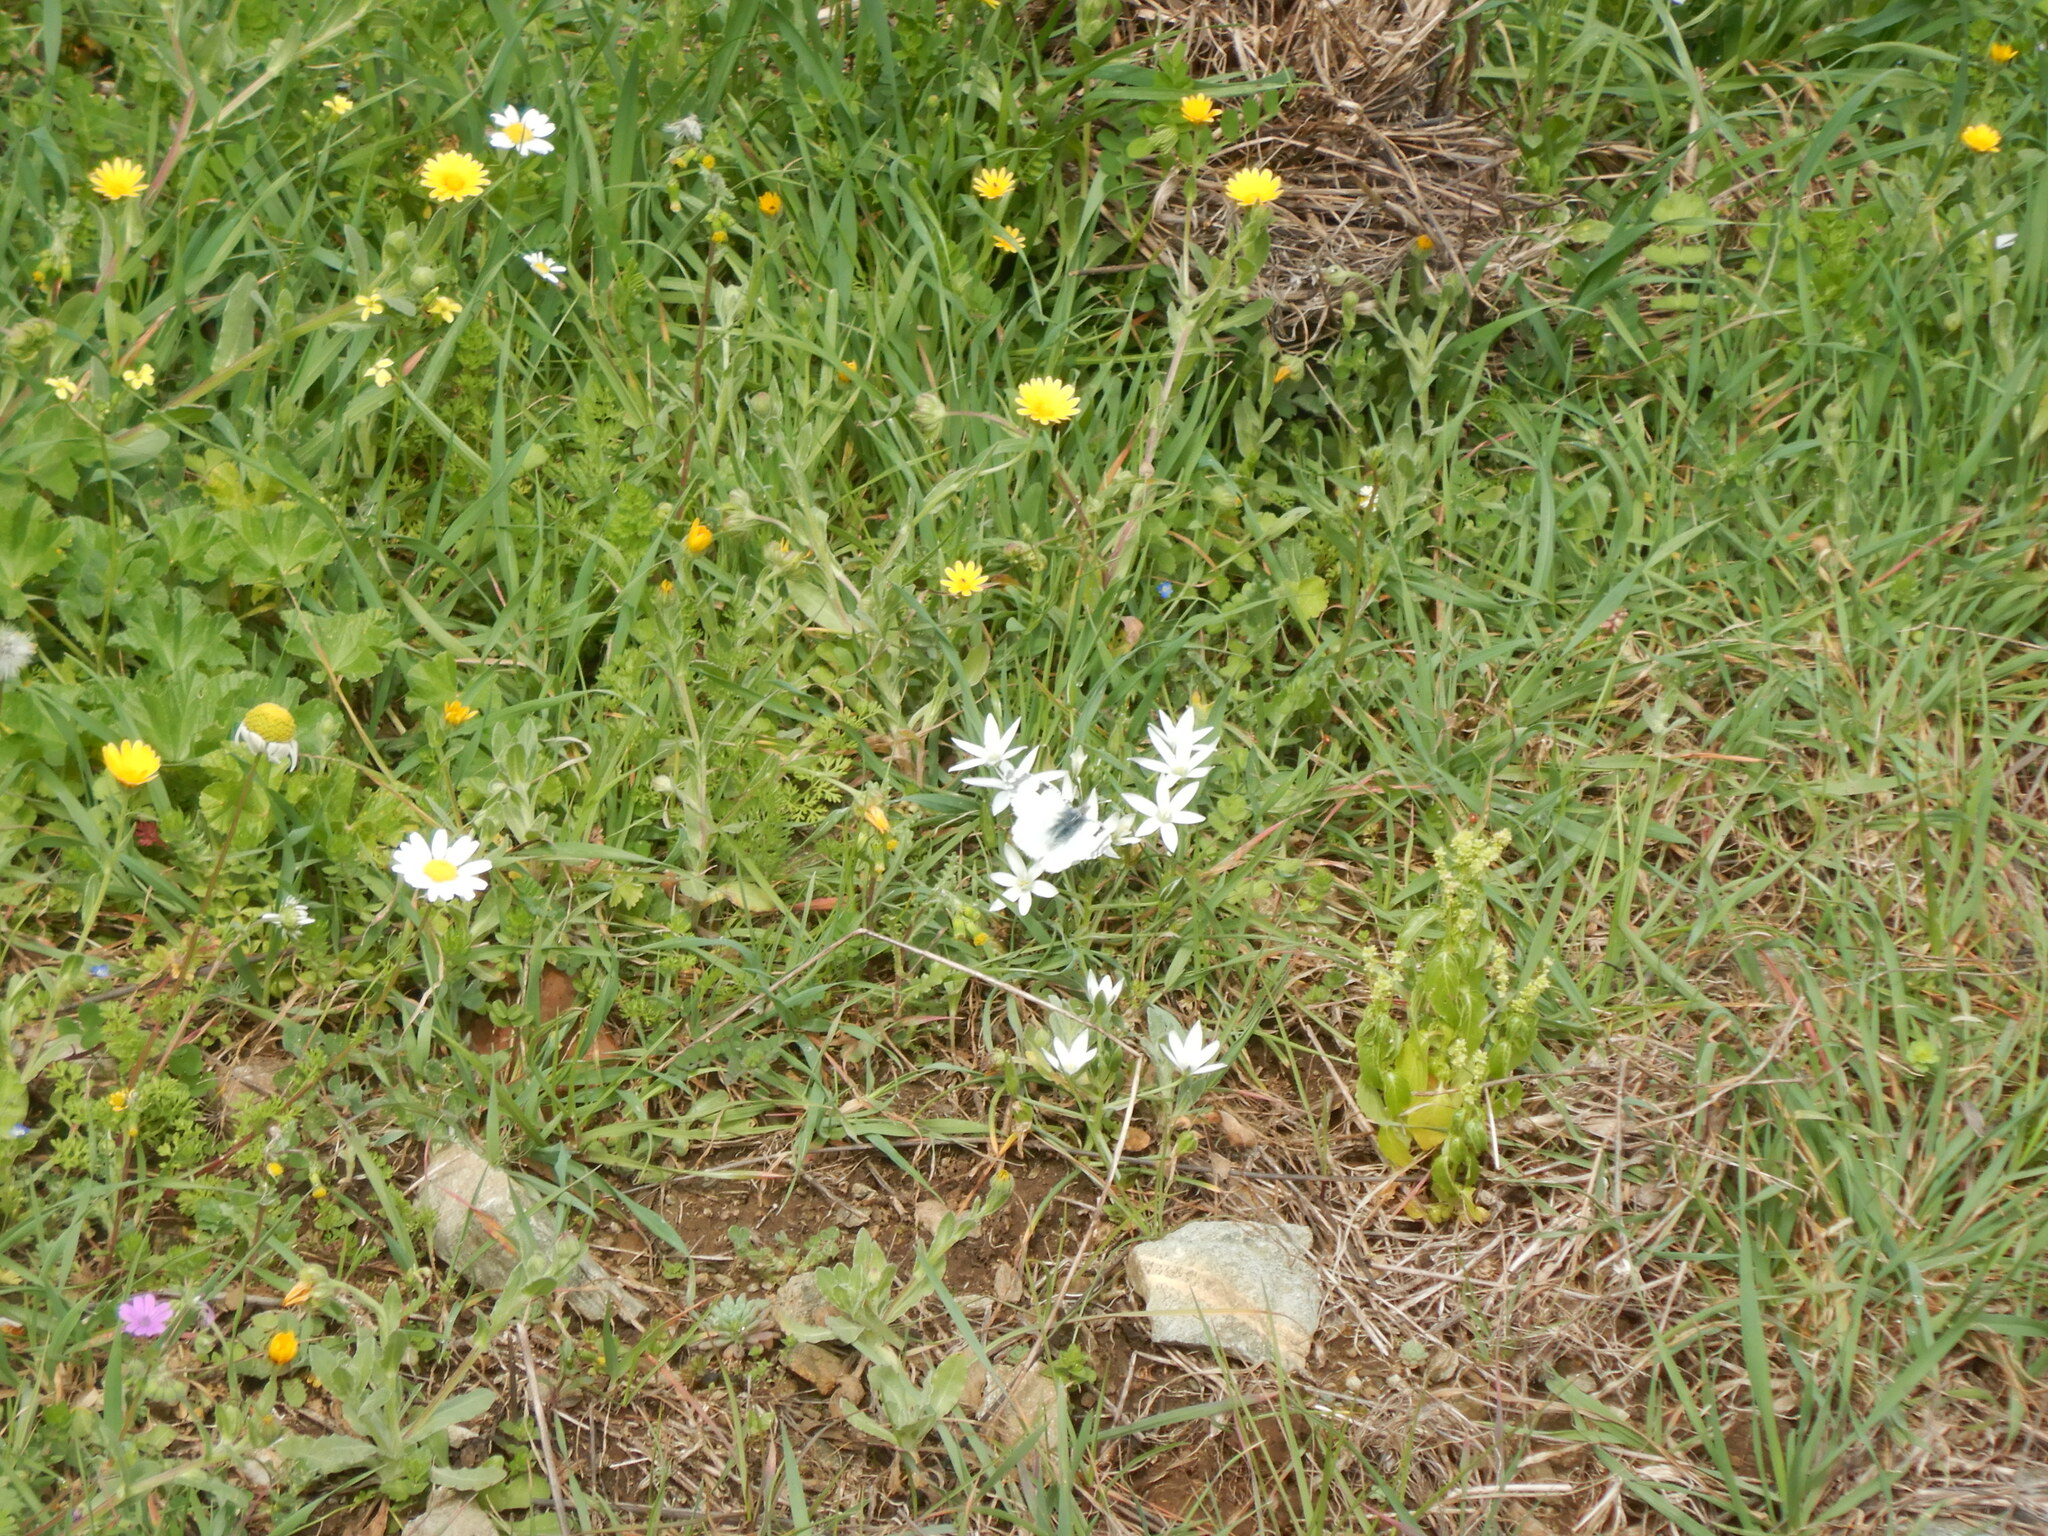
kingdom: Animalia
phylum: Arthropoda
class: Insecta
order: Lepidoptera
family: Pieridae
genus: Euchloe
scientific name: Euchloe ausonia
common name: Eastern dappled white
